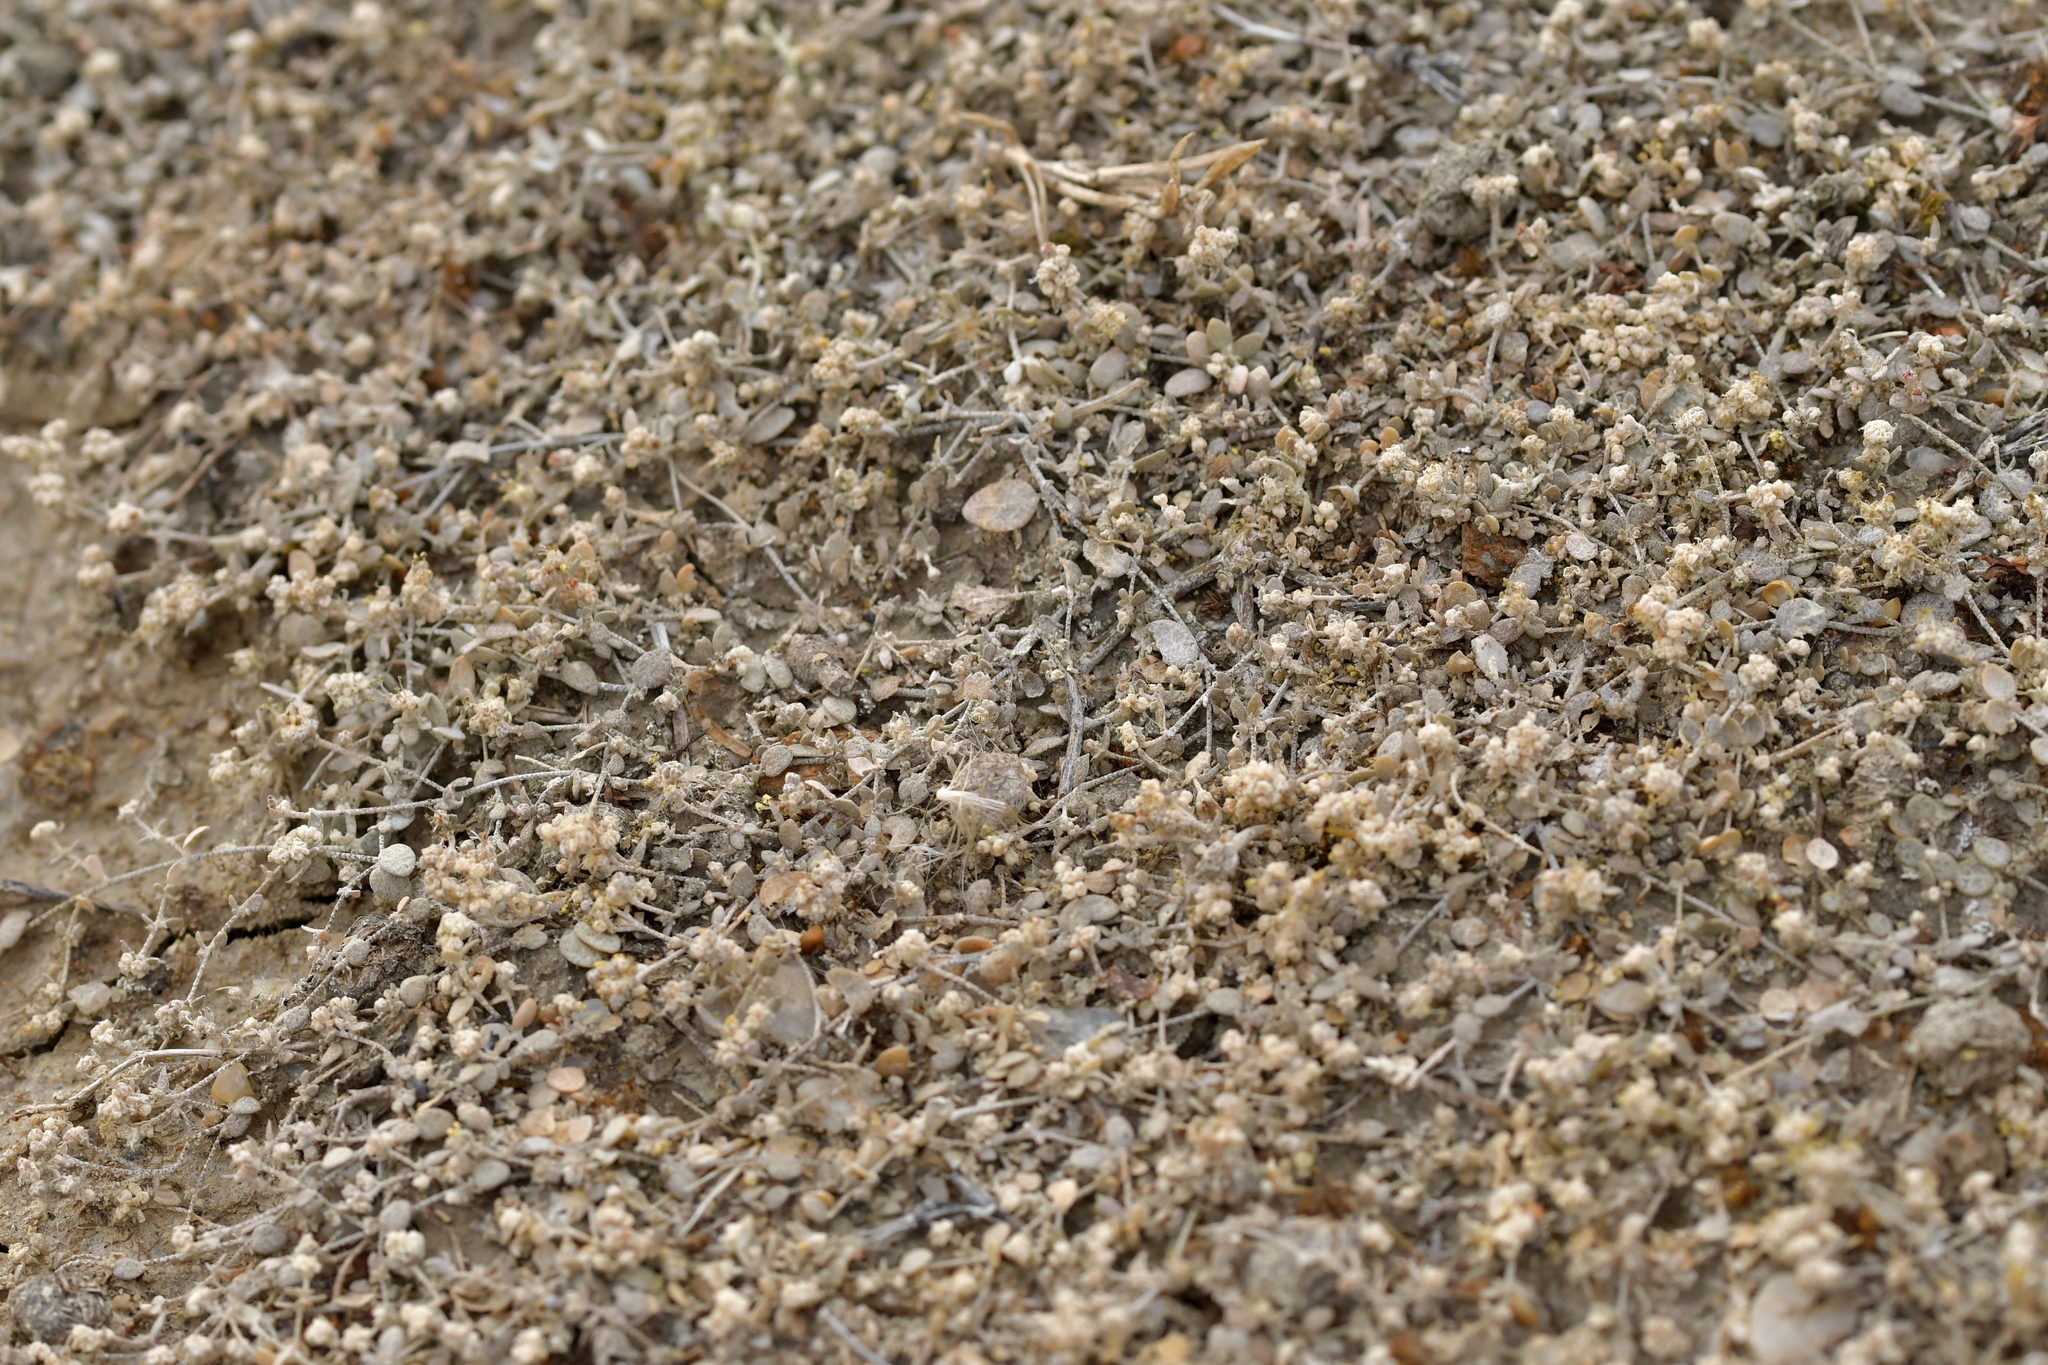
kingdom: Plantae
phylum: Tracheophyta
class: Magnoliopsida
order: Caryophyllales
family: Amaranthaceae
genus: Atriplex
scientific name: Atriplex buchananii
